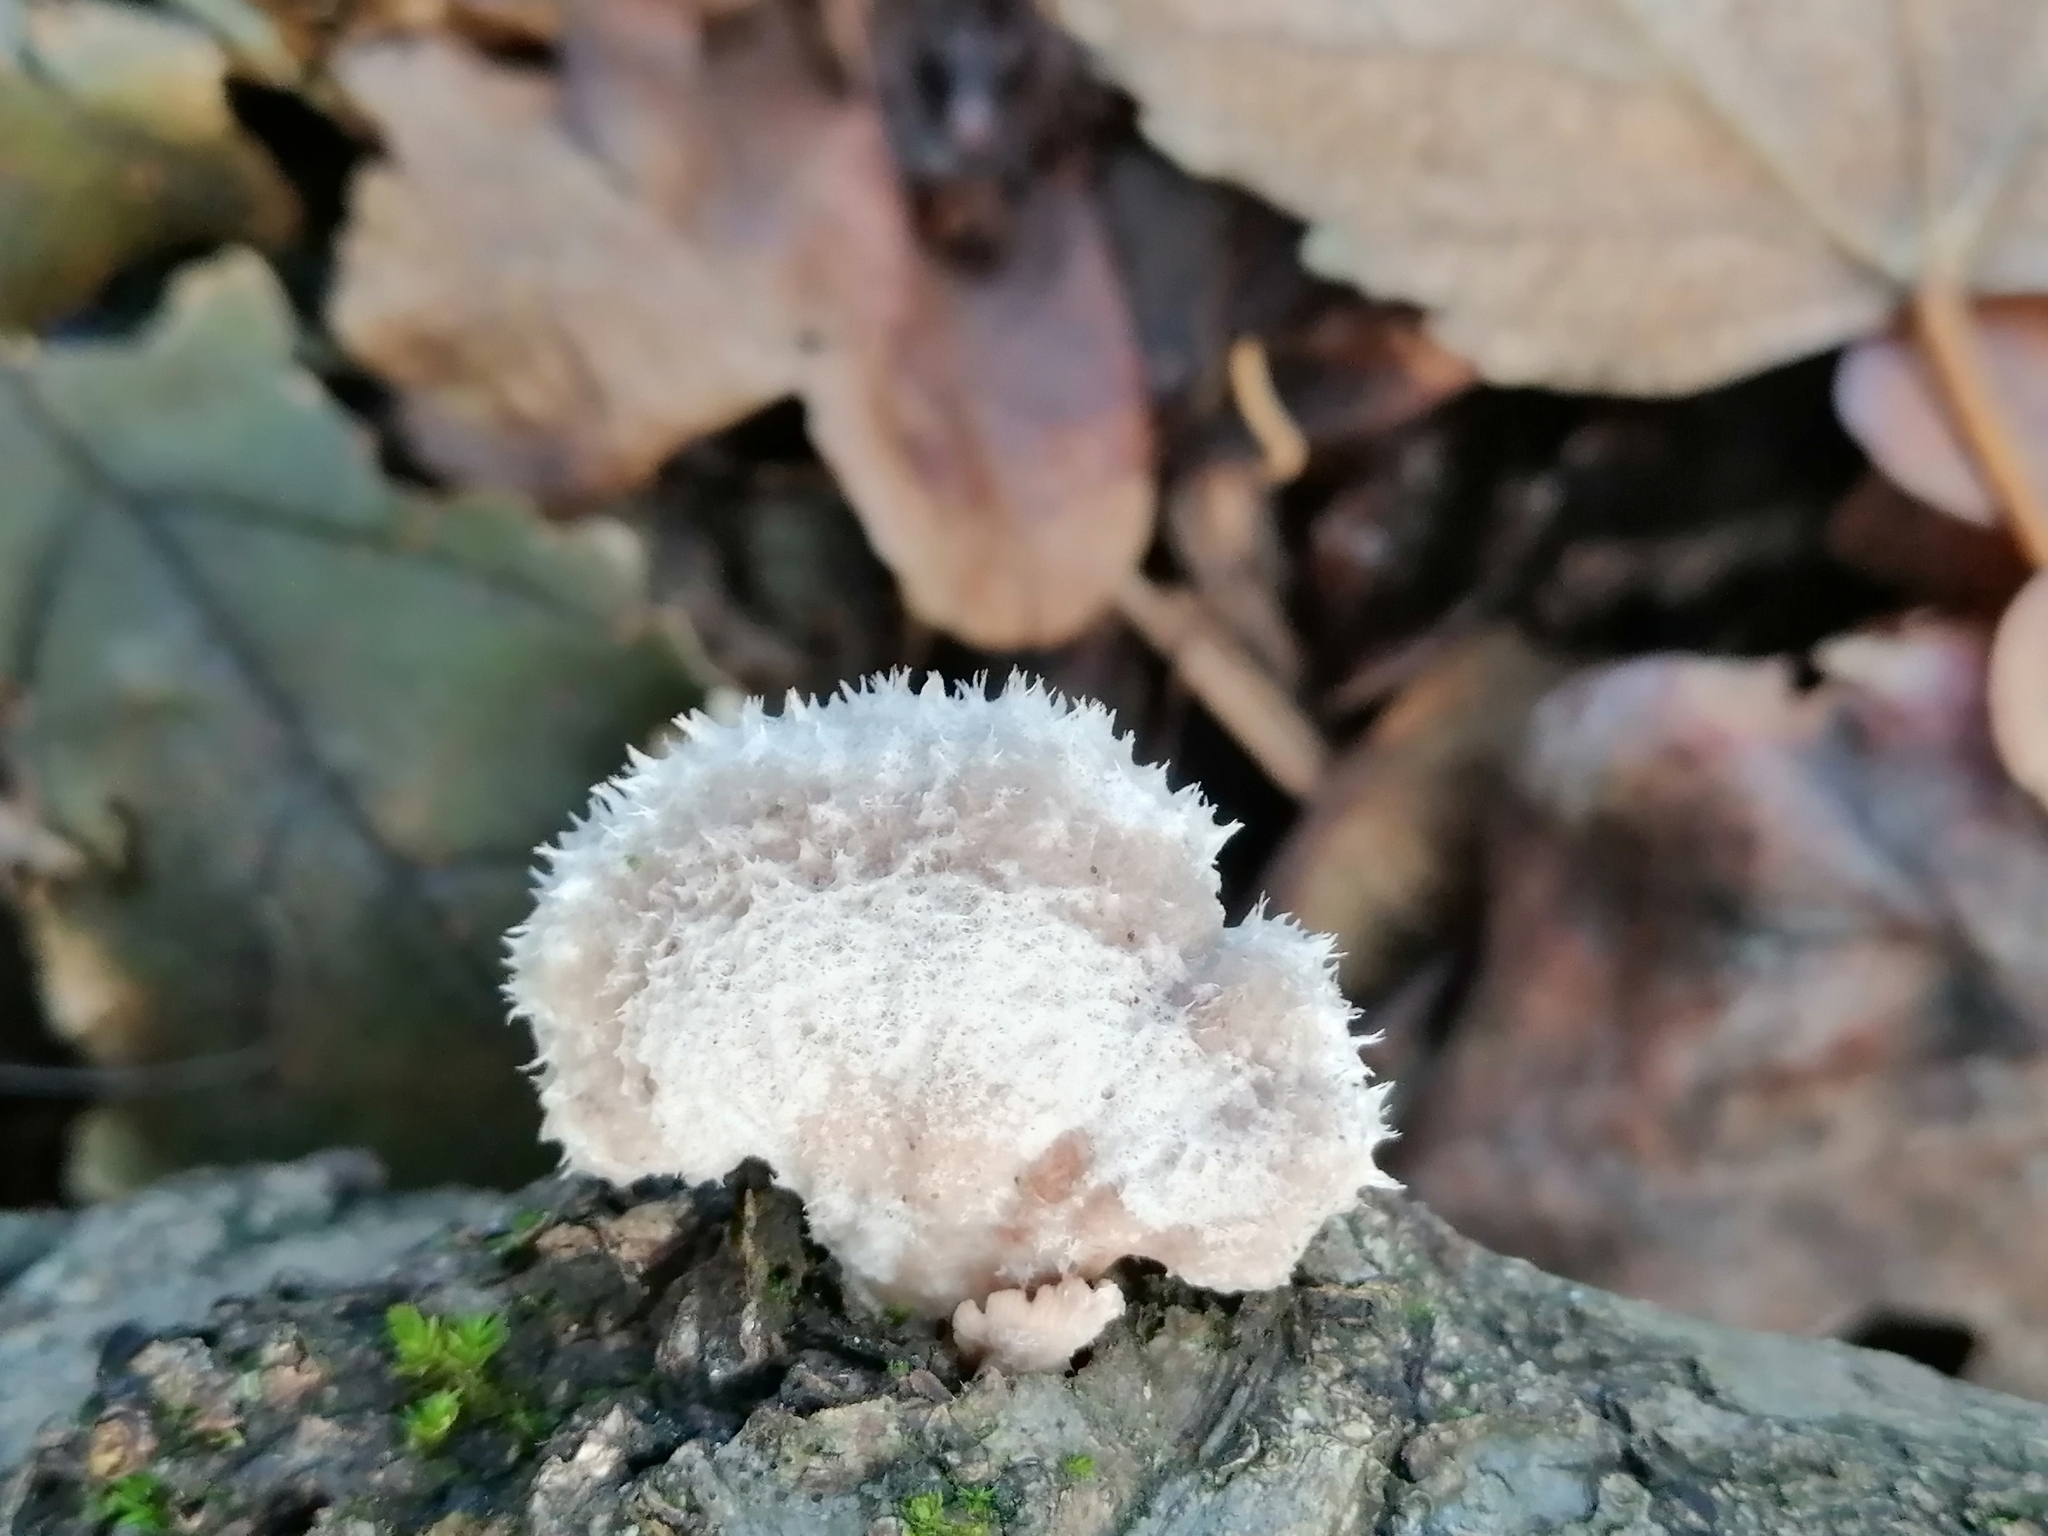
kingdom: Fungi
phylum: Basidiomycota
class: Agaricomycetes
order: Agaricales
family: Schizophyllaceae
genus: Schizophyllum
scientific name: Schizophyllum commune
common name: Common porecrust
